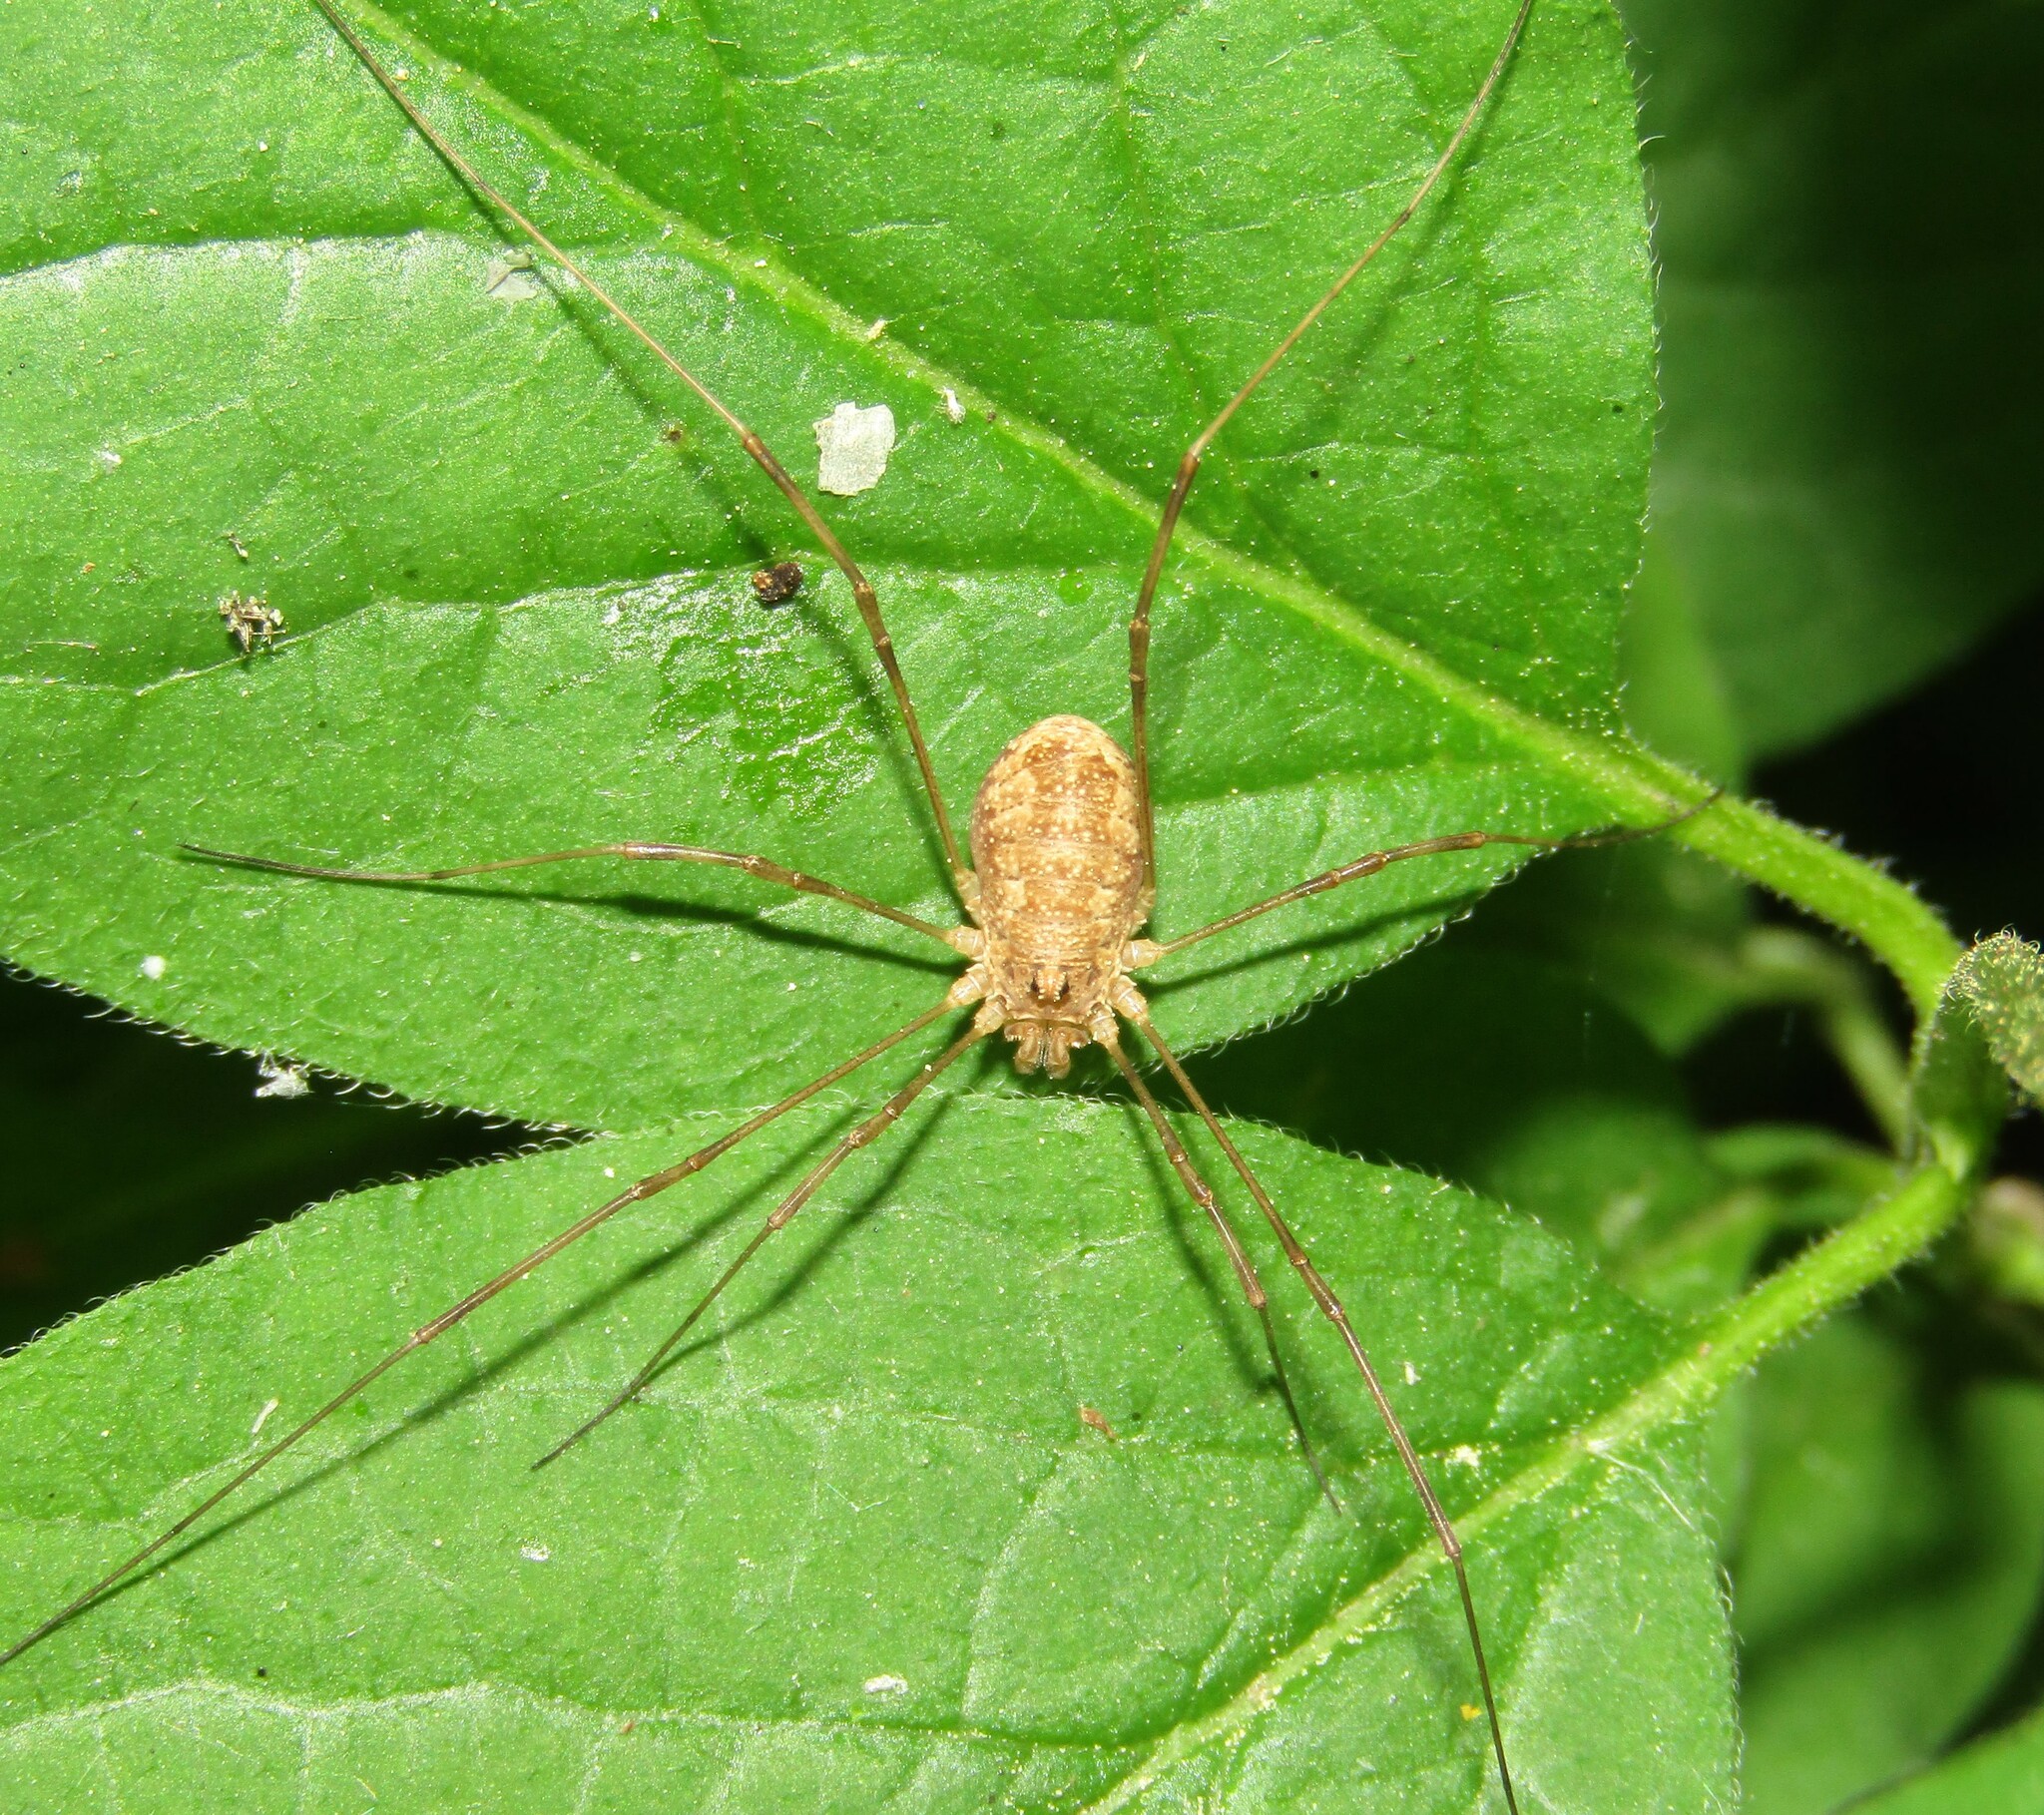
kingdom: Animalia
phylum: Arthropoda
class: Arachnida
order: Opiliones
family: Phalangiidae
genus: Rilaena
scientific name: Rilaena triangularis
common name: Spring harvestman
